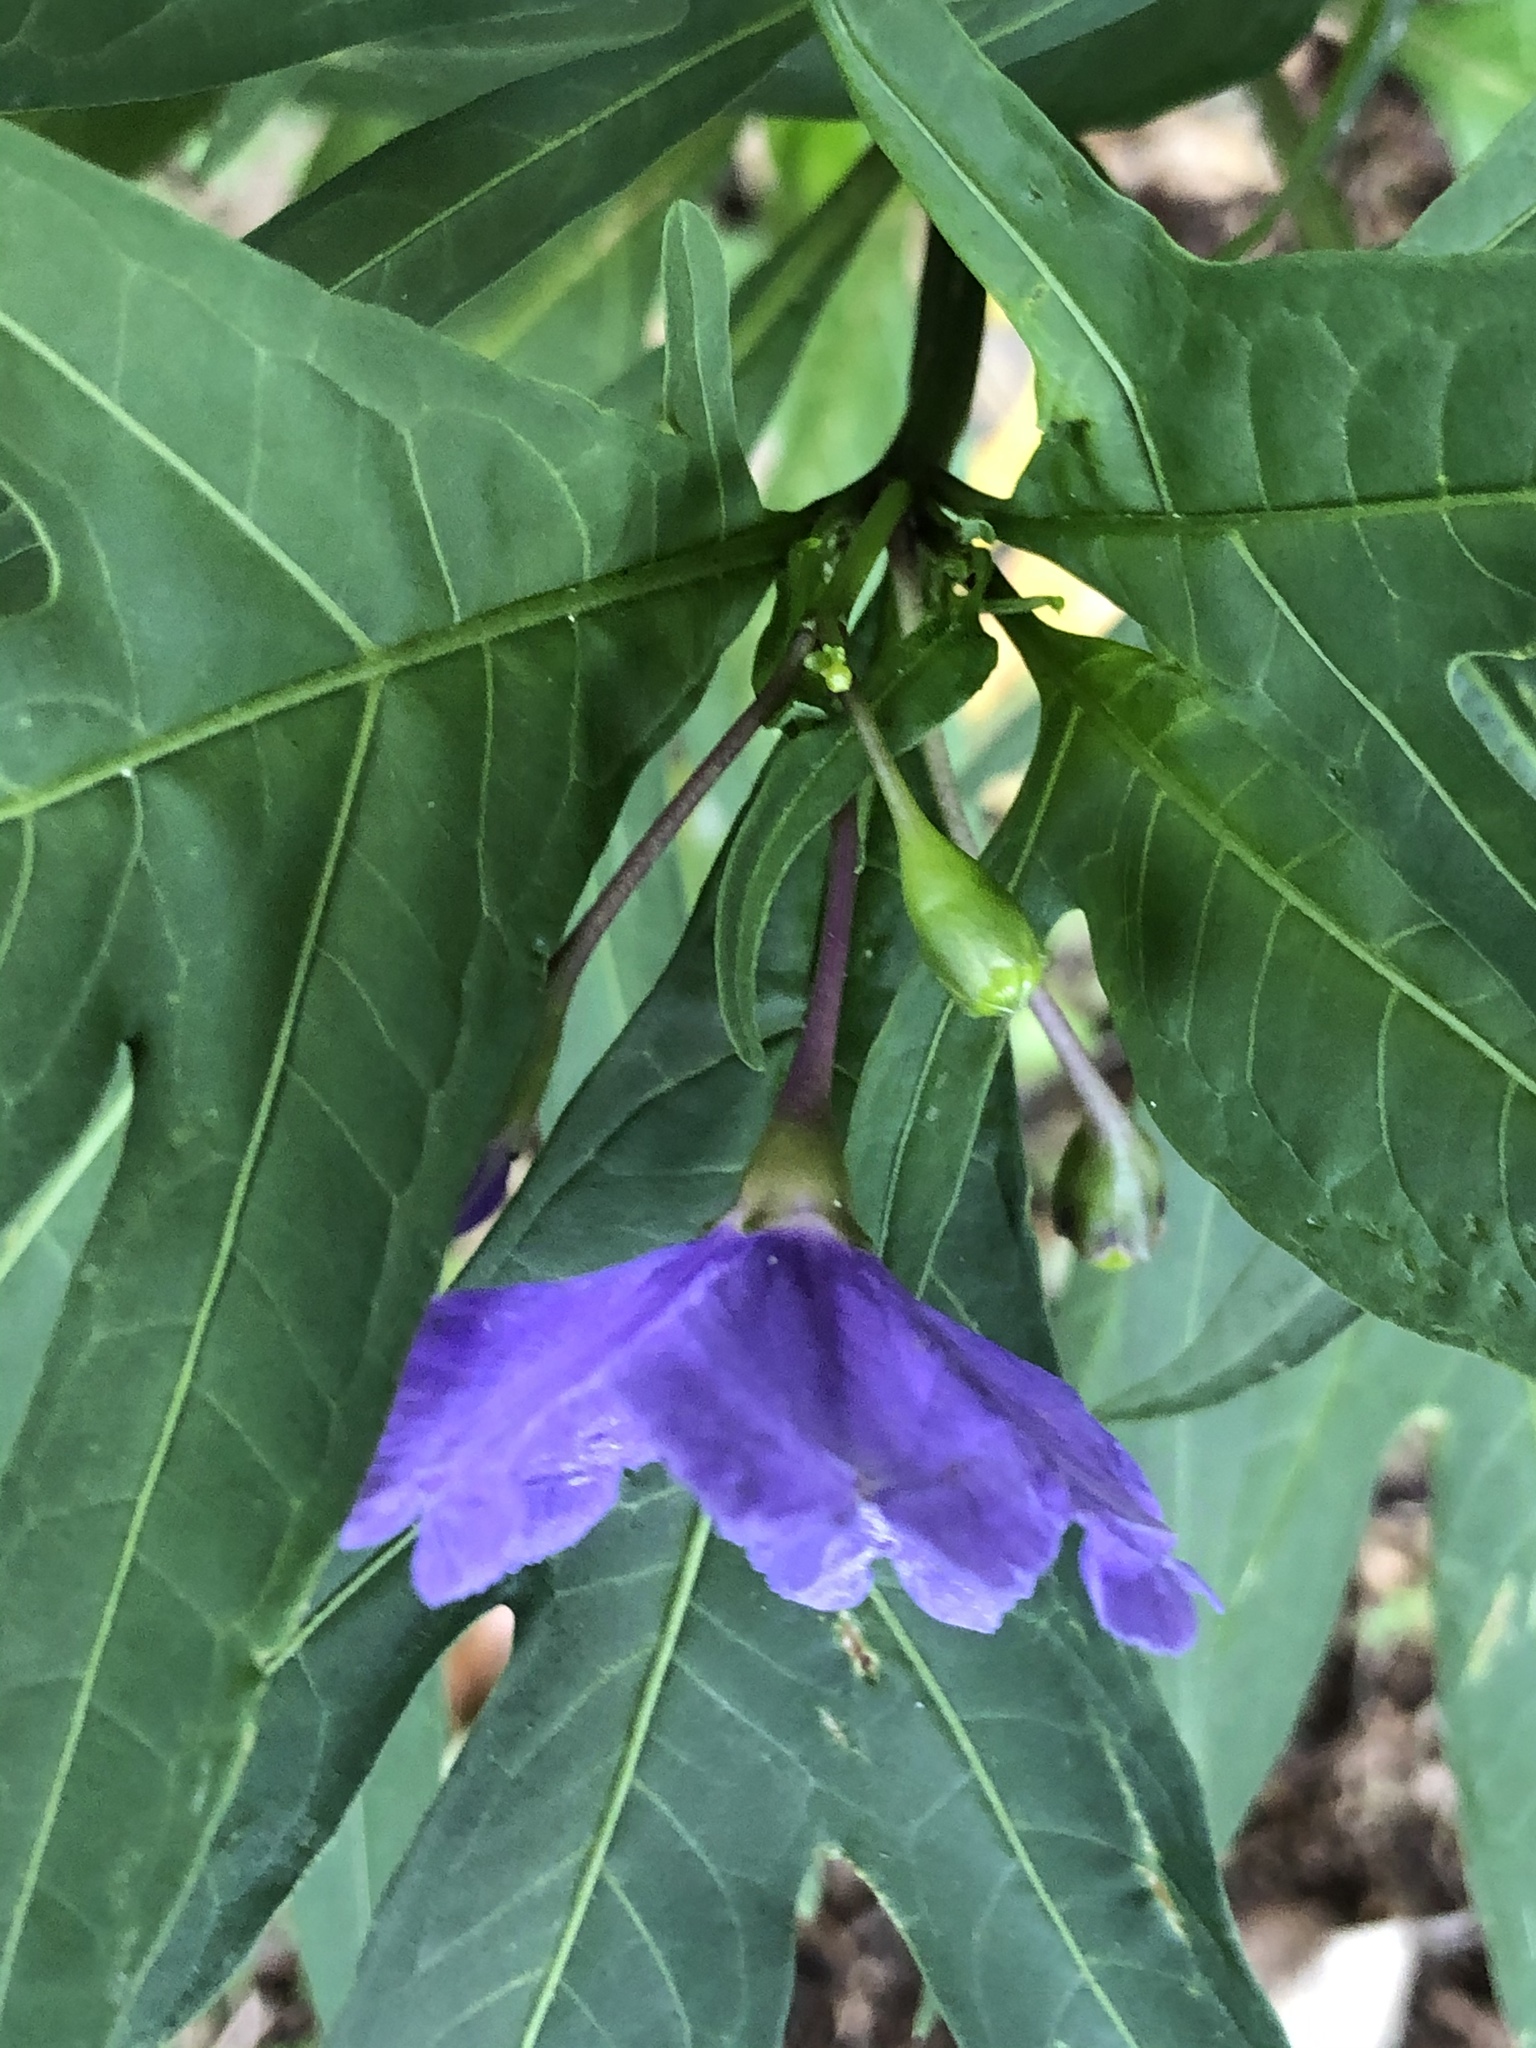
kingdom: Plantae
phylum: Tracheophyta
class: Magnoliopsida
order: Solanales
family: Solanaceae
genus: Solanum
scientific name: Solanum laciniatum
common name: Kangaroo-apple
